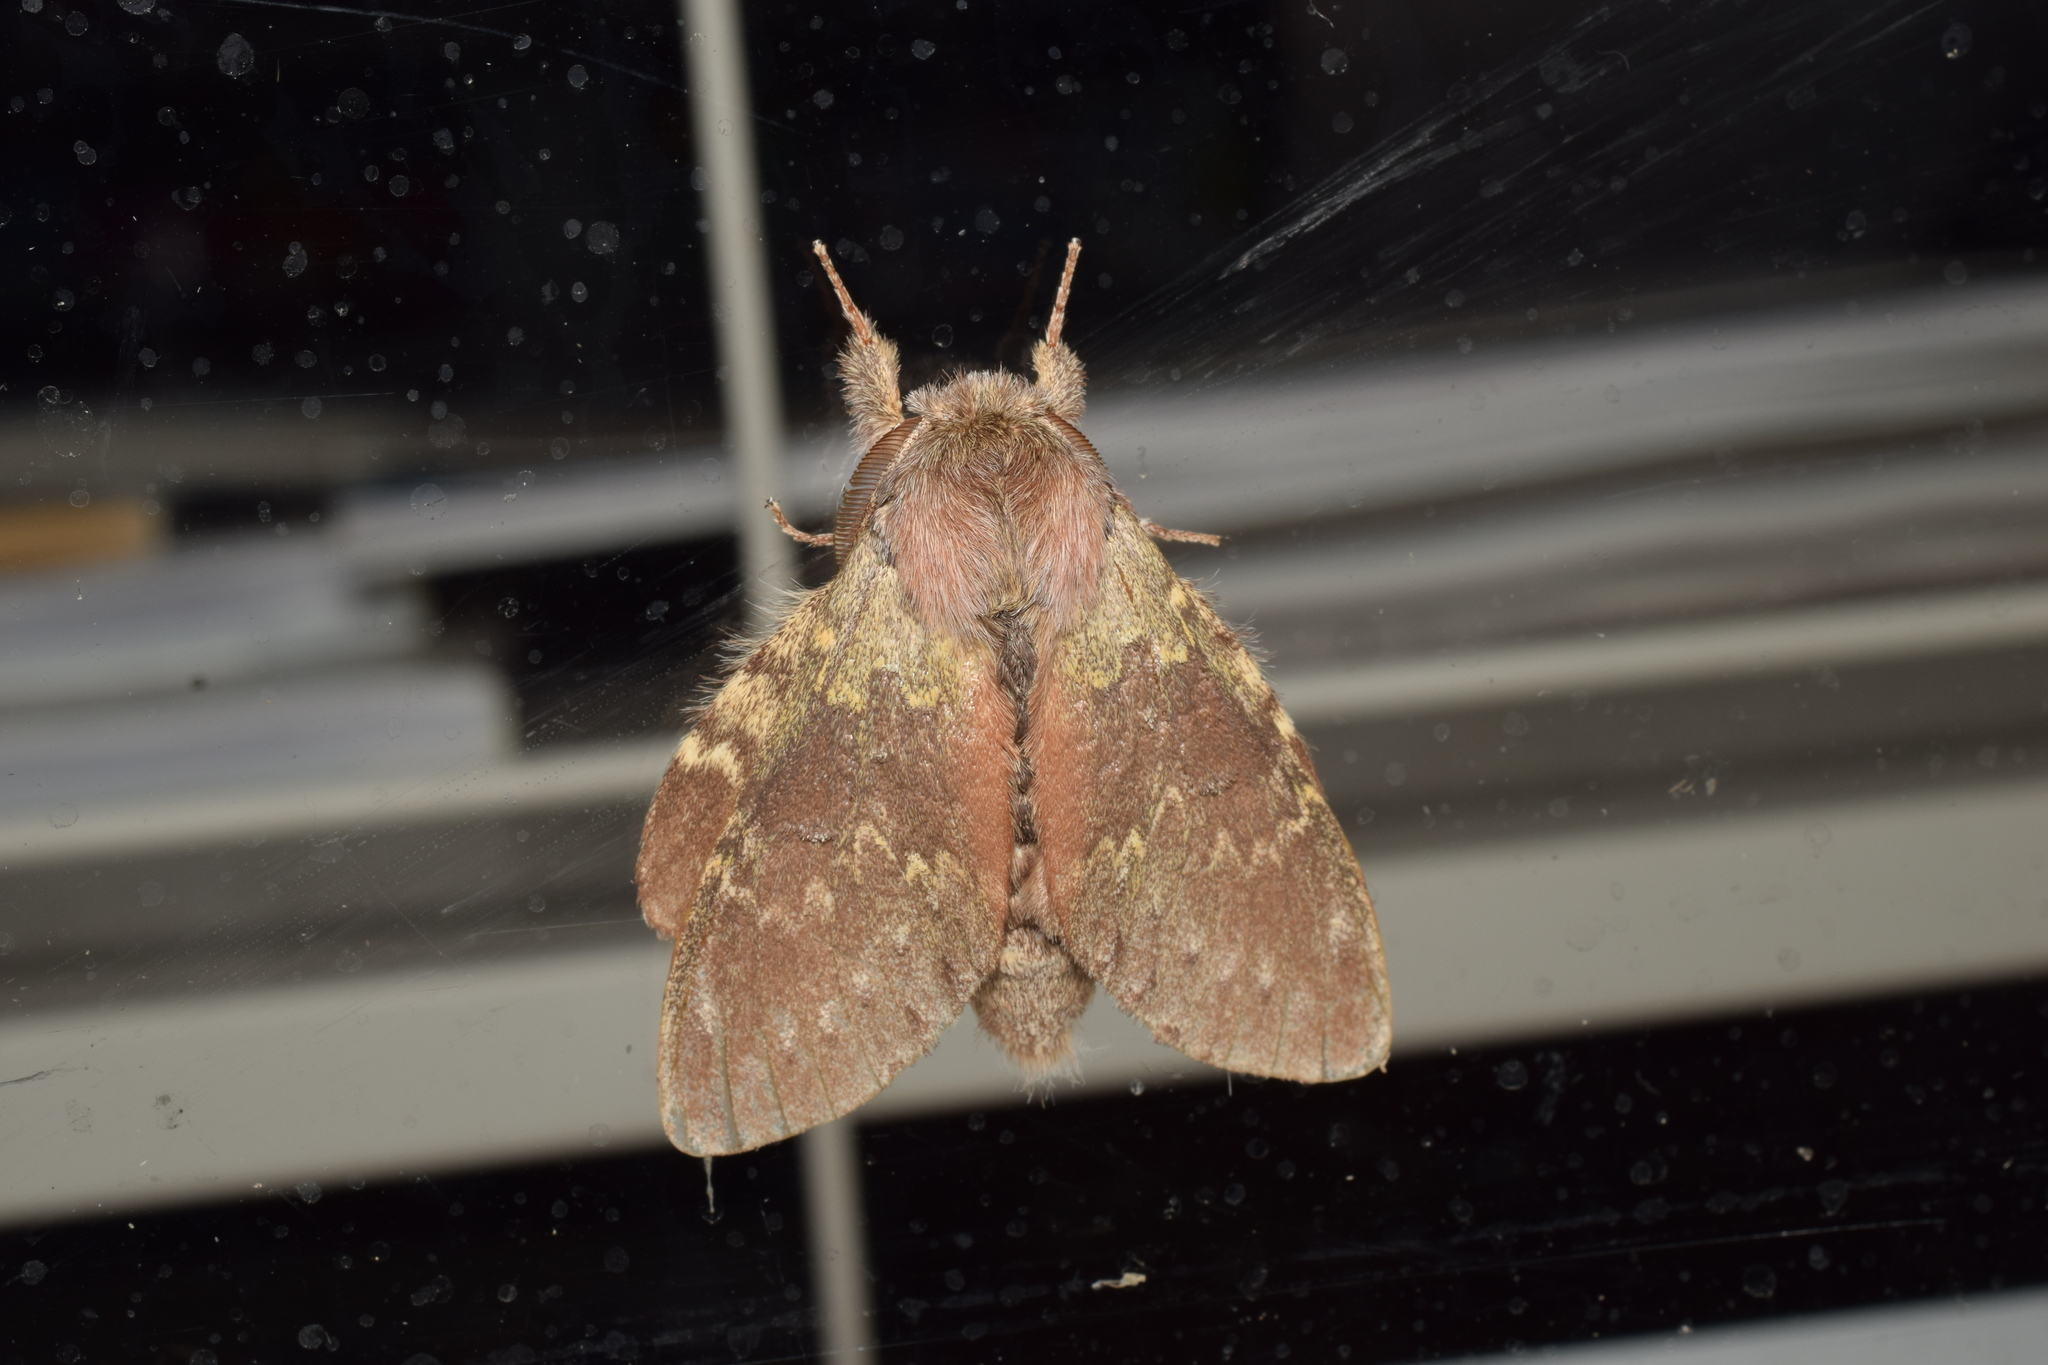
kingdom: Animalia
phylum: Arthropoda
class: Insecta
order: Lepidoptera
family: Notodontidae
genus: Stauropus
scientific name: Stauropus fagi
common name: Lobster moth
